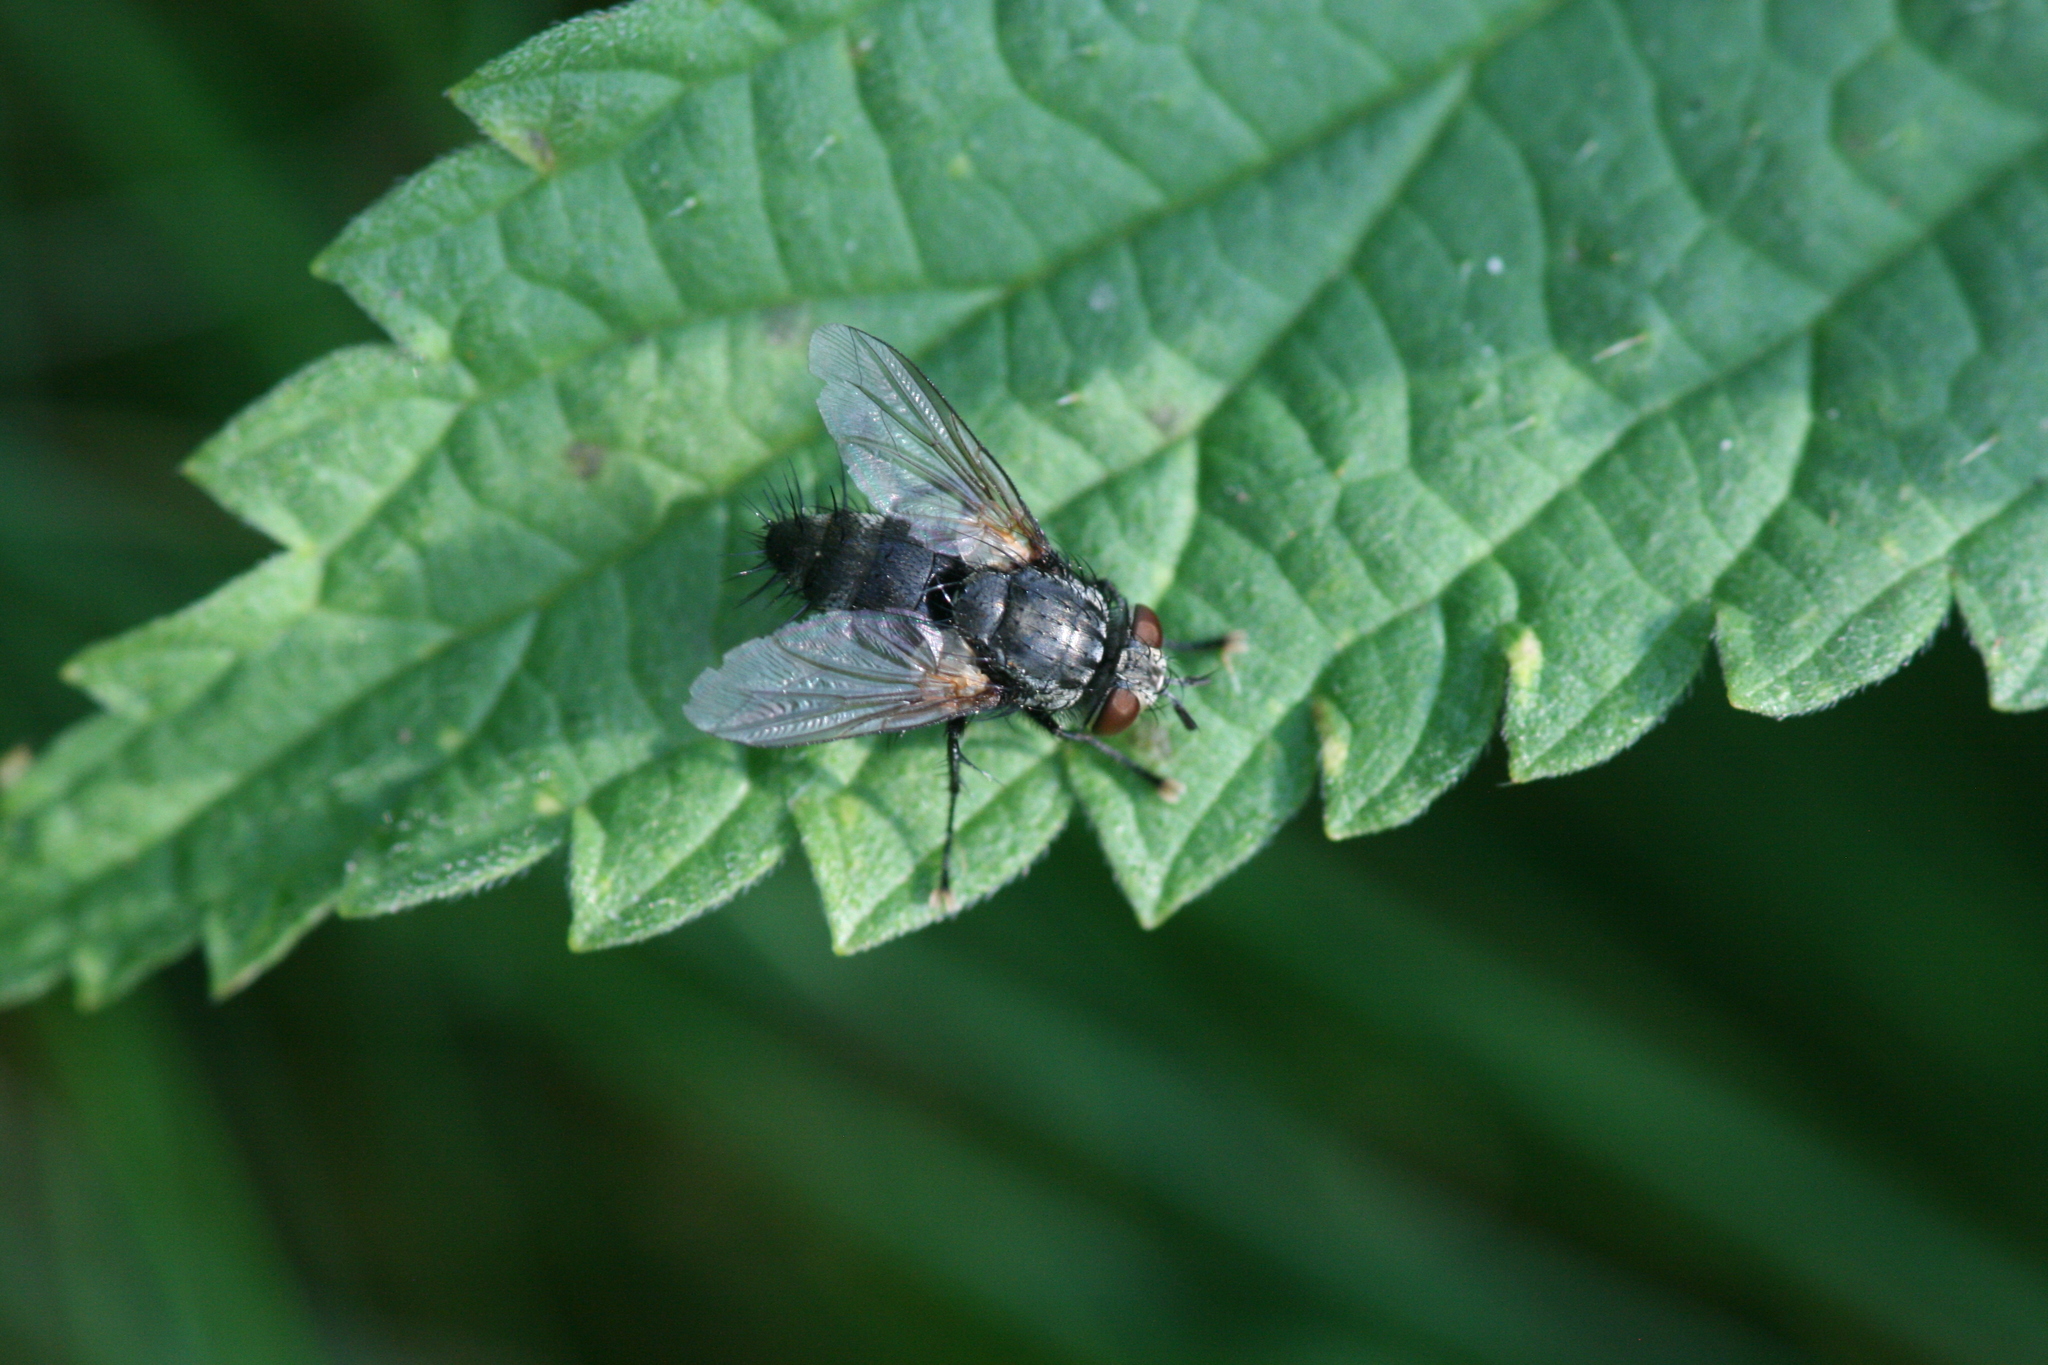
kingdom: Animalia
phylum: Arthropoda
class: Insecta
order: Diptera
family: Tachinidae
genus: Voria
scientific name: Voria ruralis
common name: Parasitic fly
